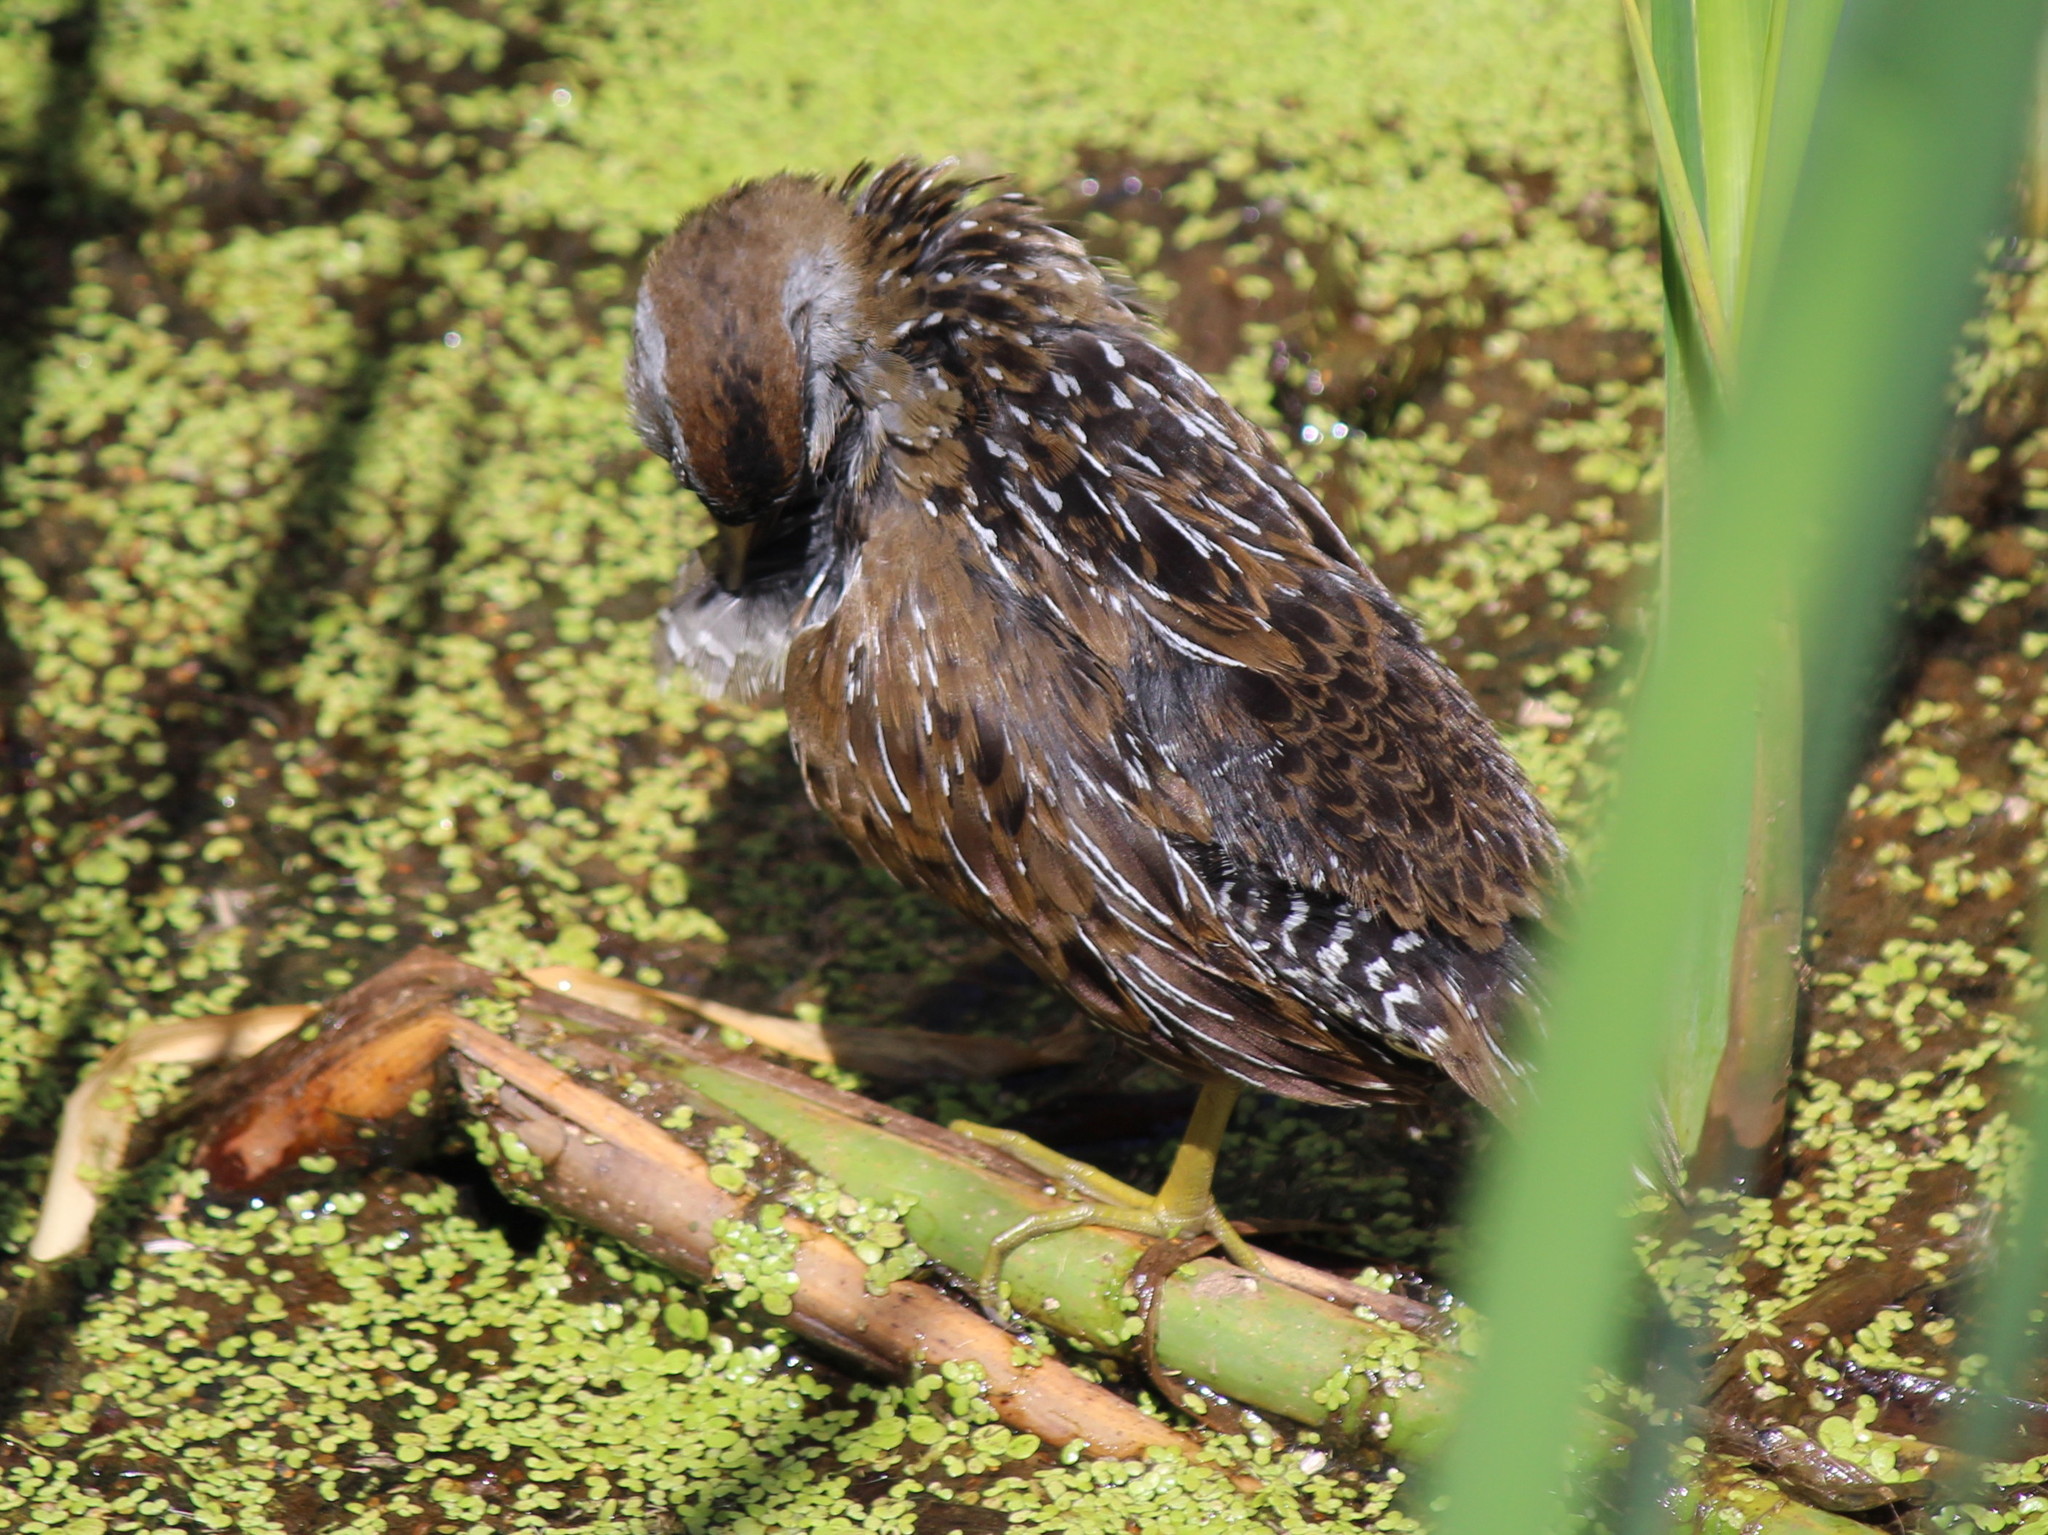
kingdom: Animalia
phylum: Chordata
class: Aves
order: Gruiformes
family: Rallidae
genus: Porzana
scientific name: Porzana carolina
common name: Sora
